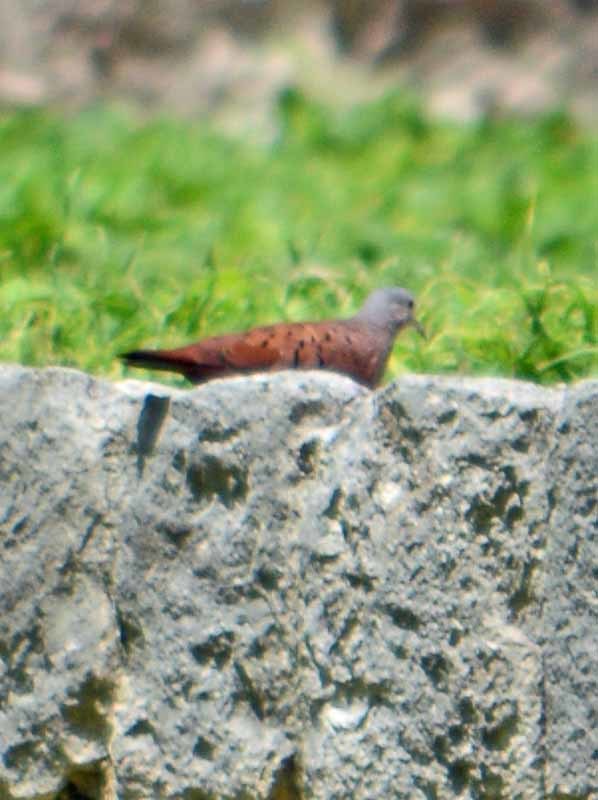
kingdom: Animalia
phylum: Chordata
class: Aves
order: Columbiformes
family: Columbidae
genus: Columbina
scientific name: Columbina talpacoti
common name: Ruddy ground dove
